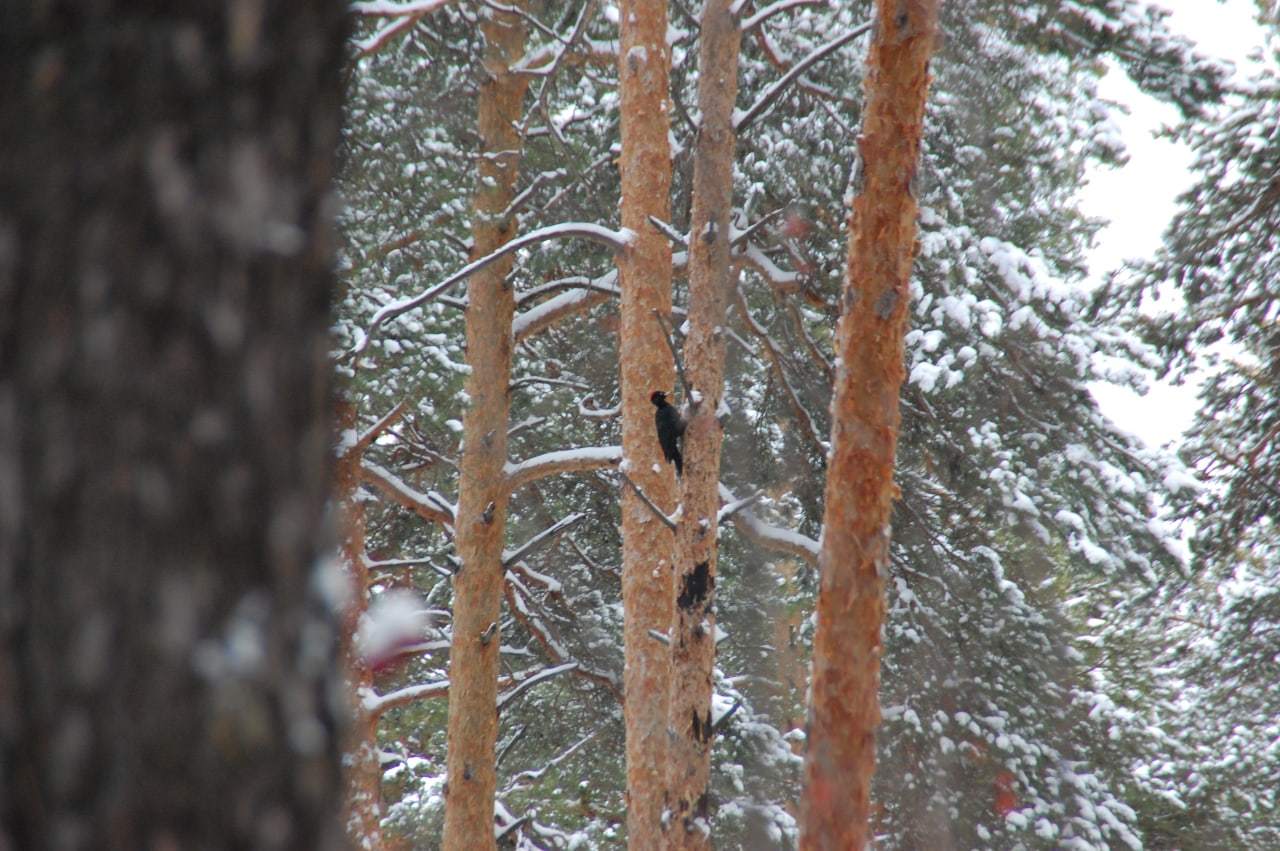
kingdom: Animalia
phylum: Chordata
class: Aves
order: Piciformes
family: Picidae
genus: Dryocopus
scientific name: Dryocopus martius
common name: Black woodpecker
